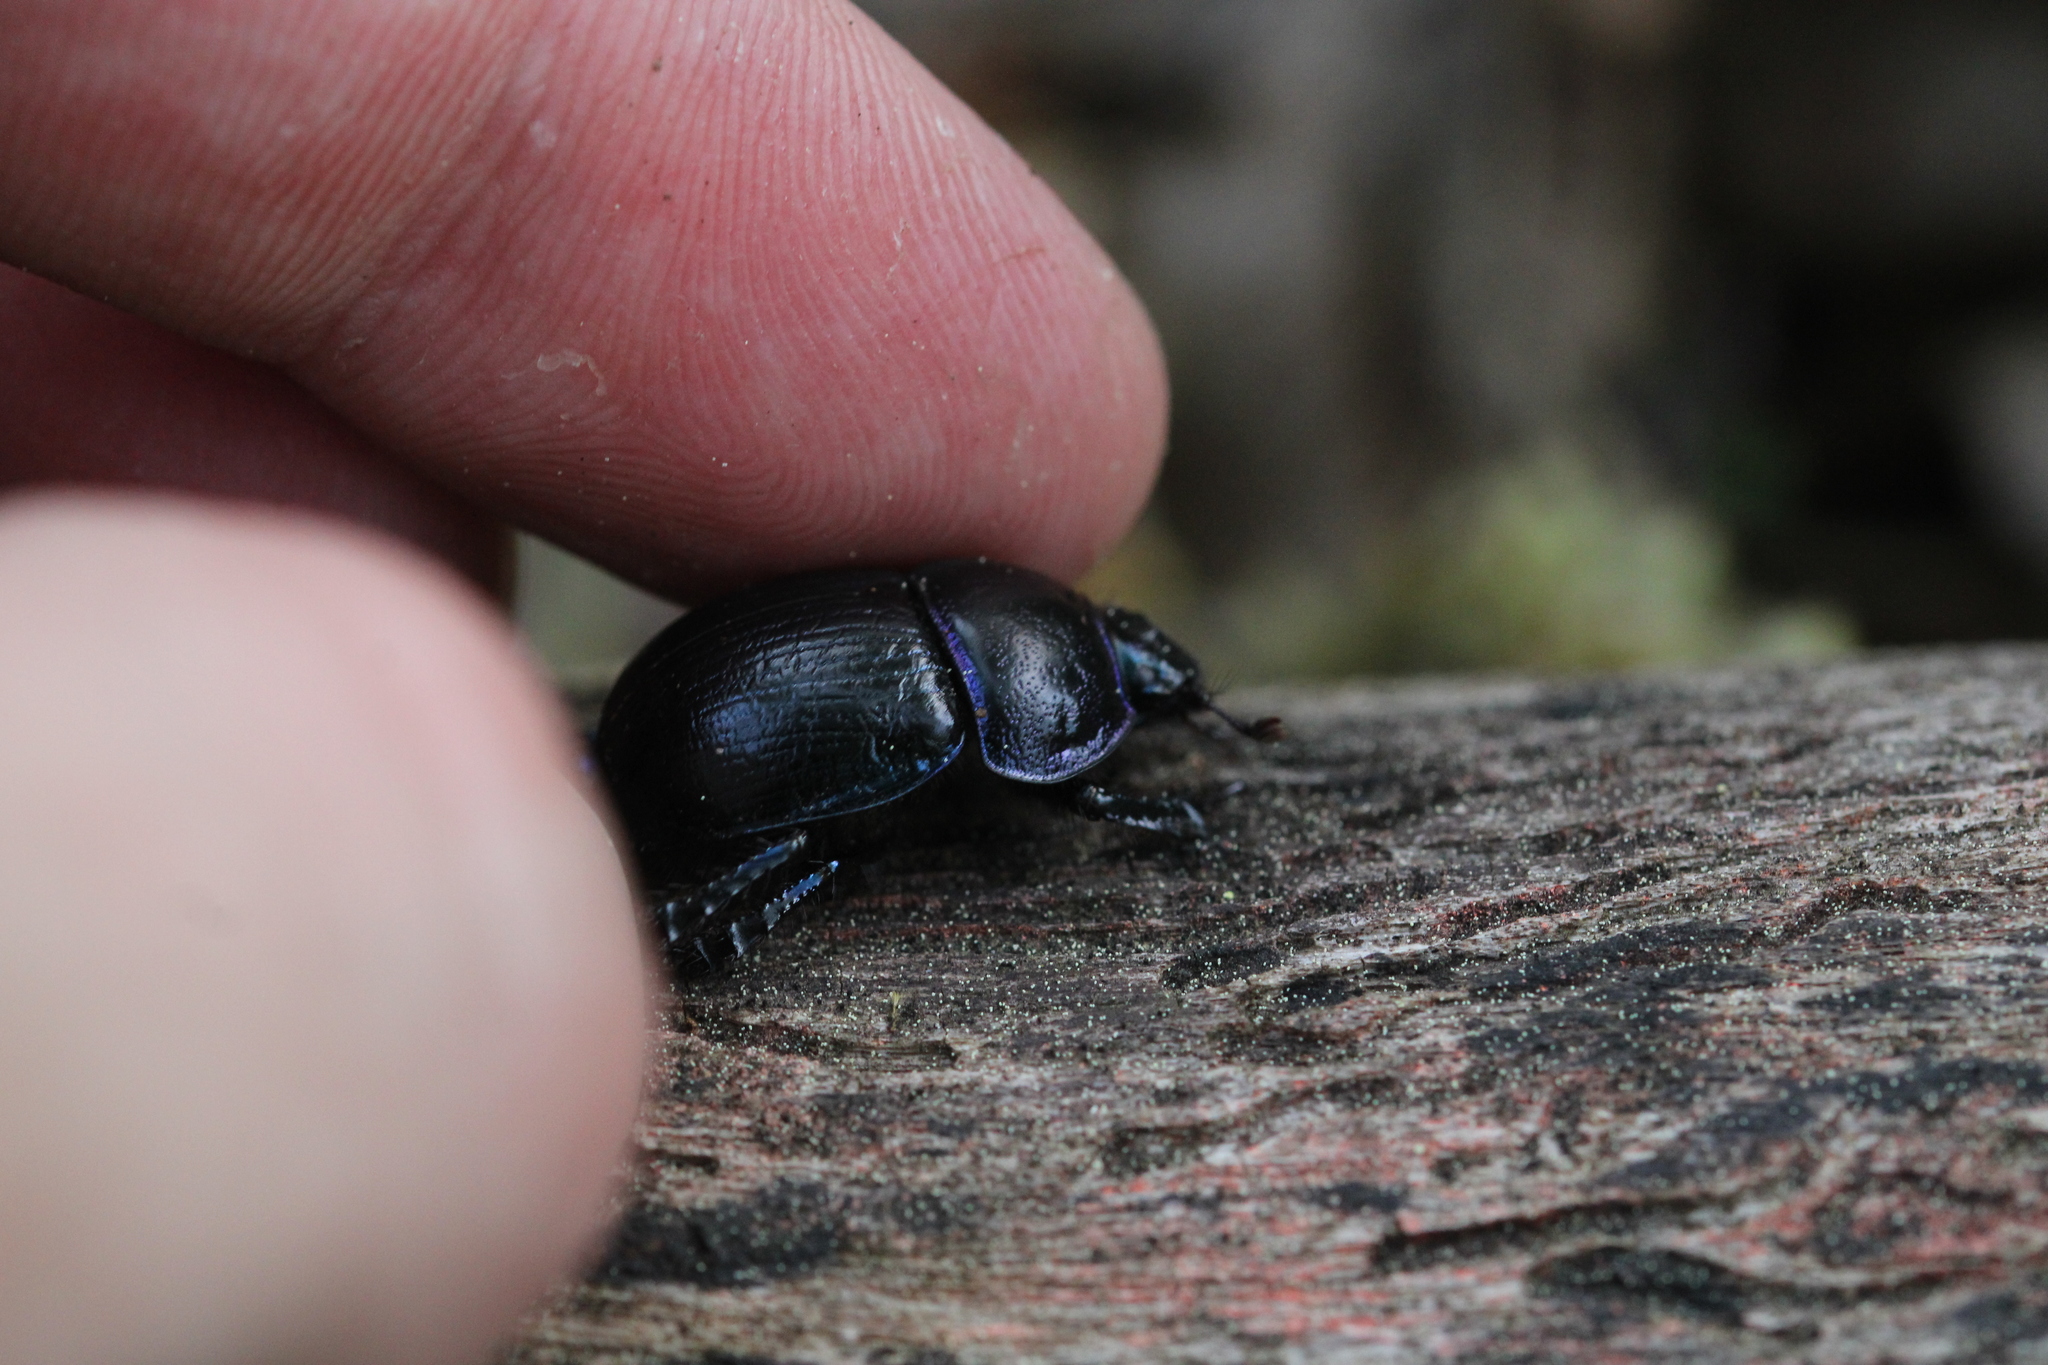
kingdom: Animalia
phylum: Arthropoda
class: Insecta
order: Coleoptera
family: Geotrupidae
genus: Anoplotrupes
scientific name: Anoplotrupes stercorosus
